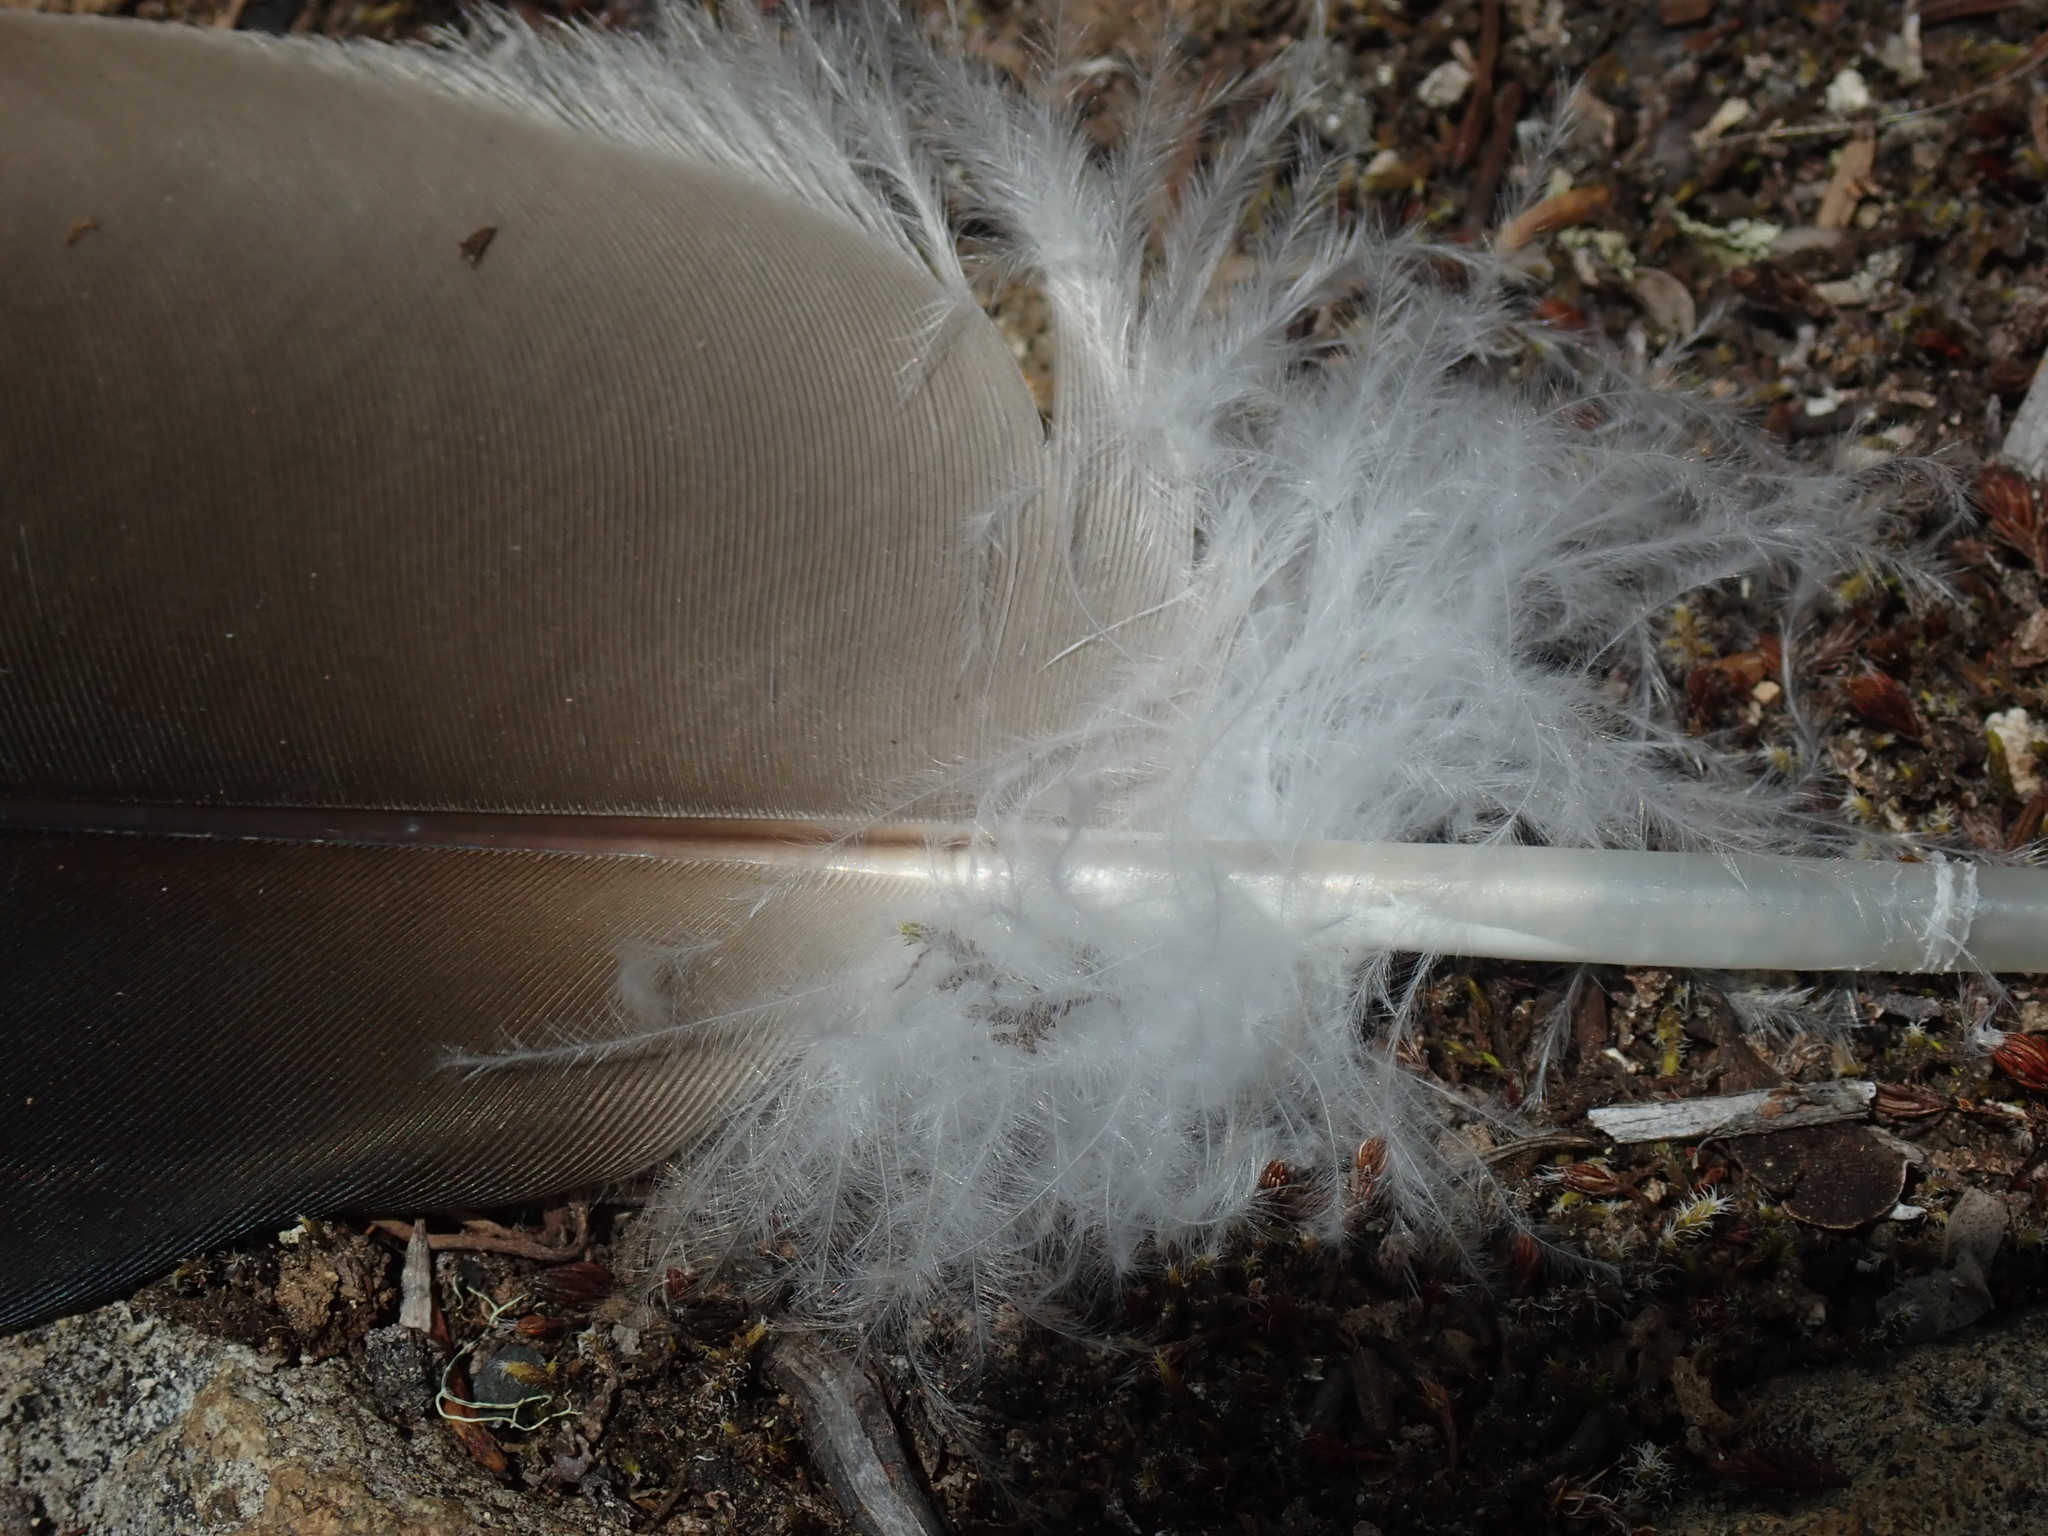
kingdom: Animalia
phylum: Chordata
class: Aves
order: Accipitriformes
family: Cathartidae
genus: Cathartes
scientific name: Cathartes aura
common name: Turkey vulture
